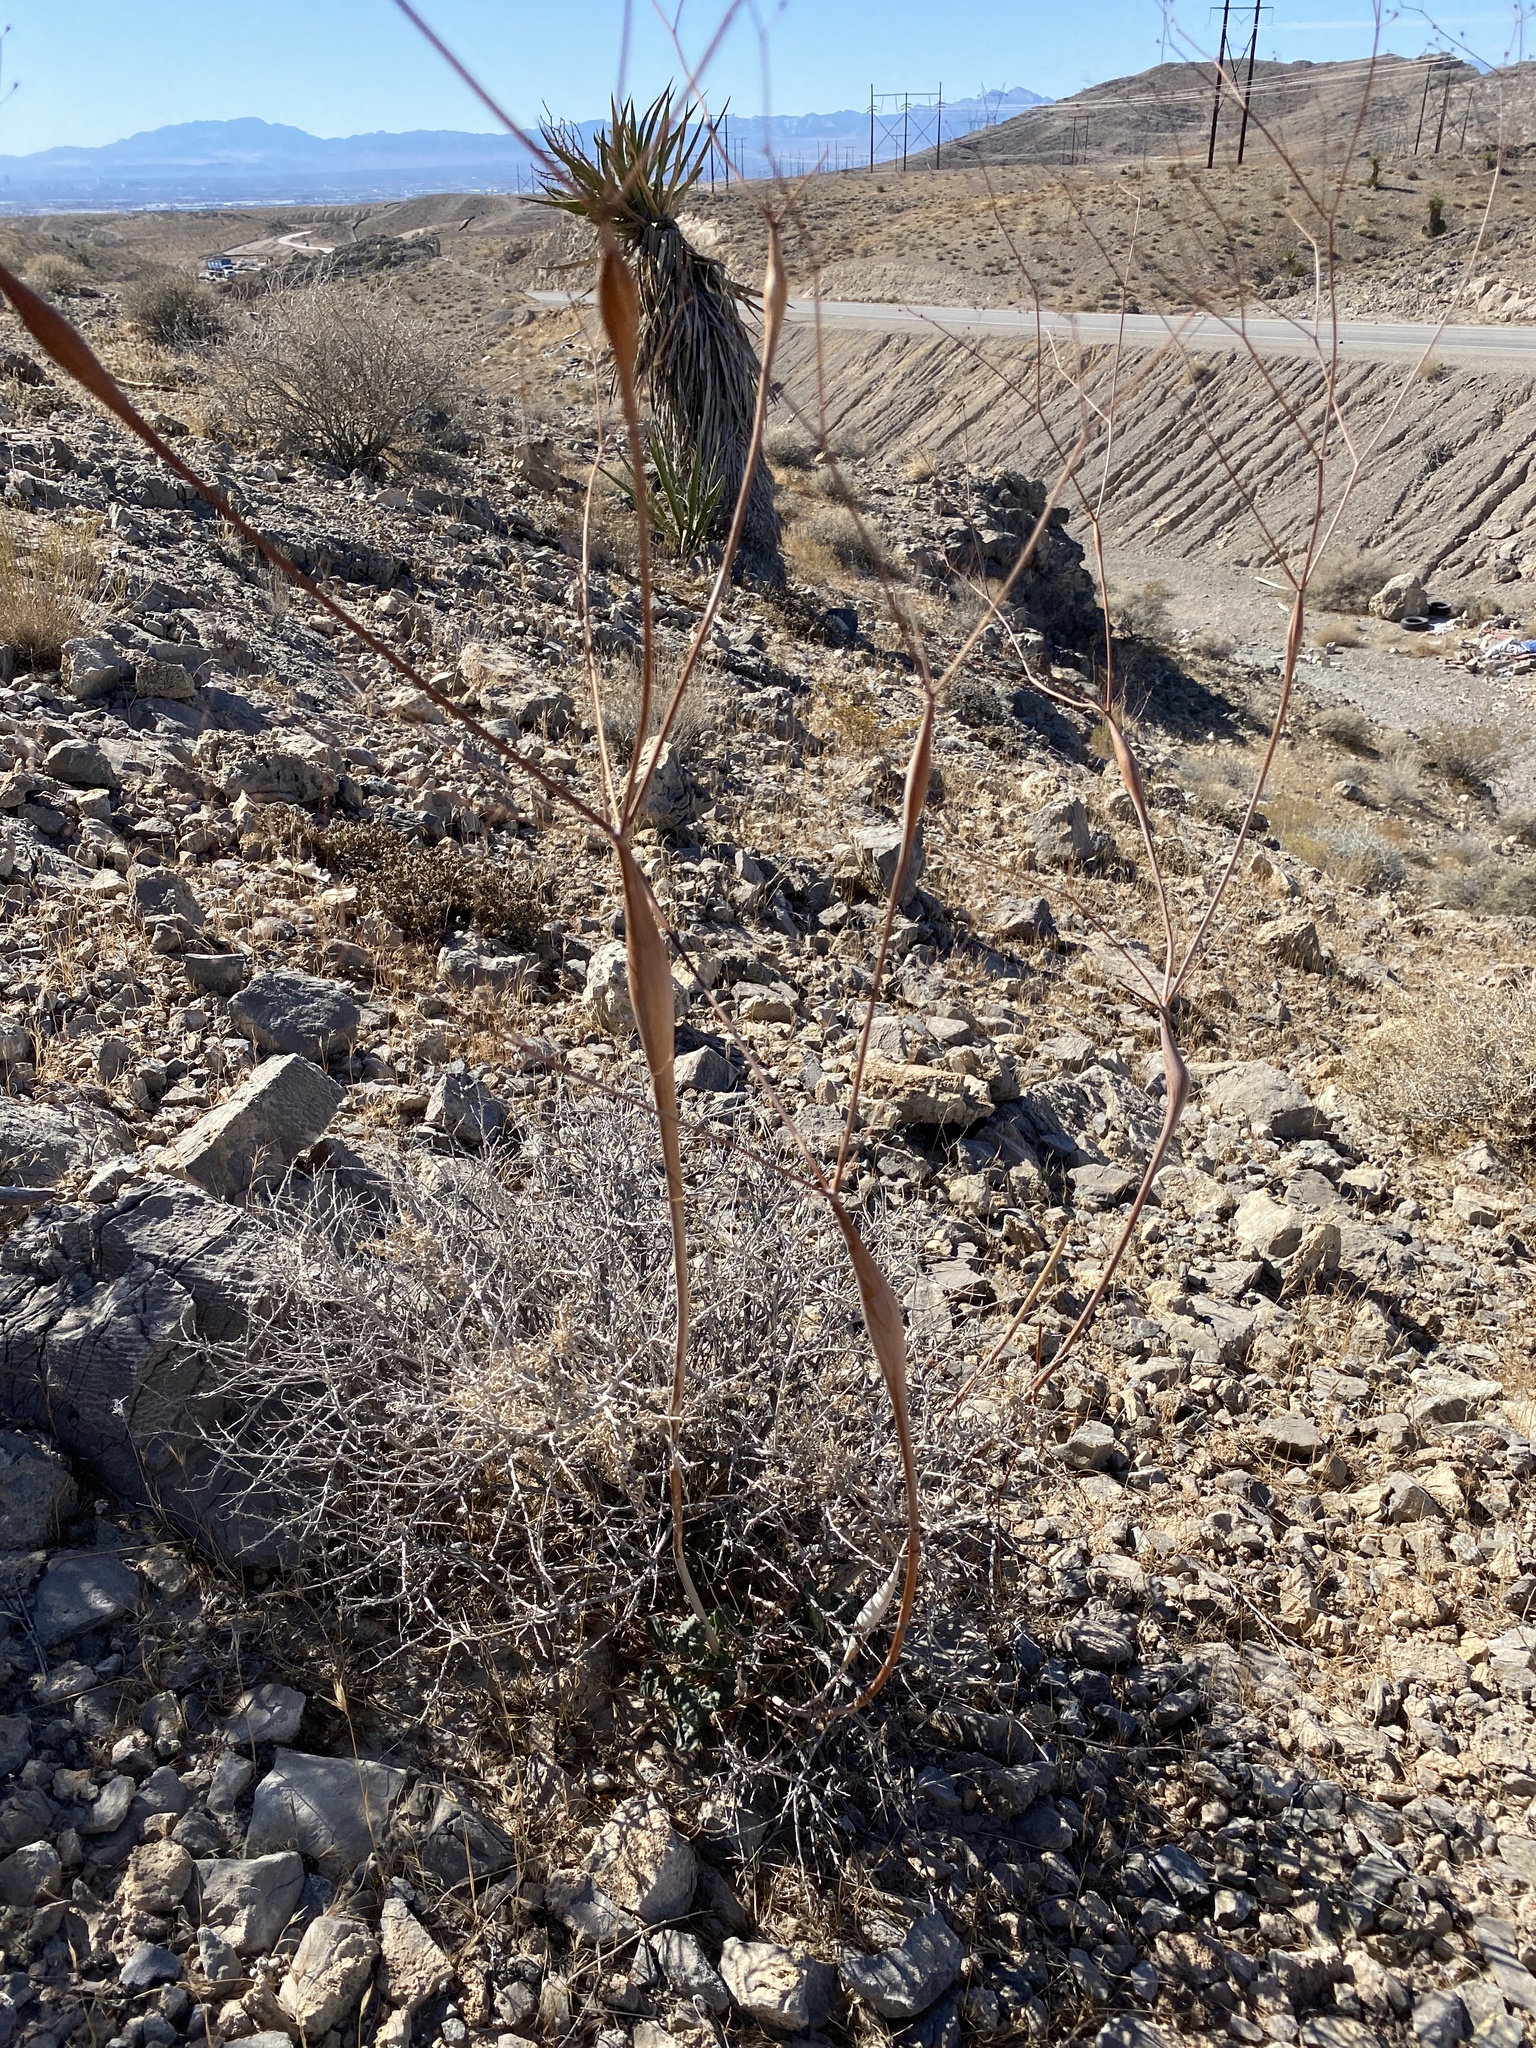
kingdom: Plantae
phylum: Tracheophyta
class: Magnoliopsida
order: Caryophyllales
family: Polygonaceae
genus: Eriogonum
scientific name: Eriogonum inflatum
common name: Desert trumpet
